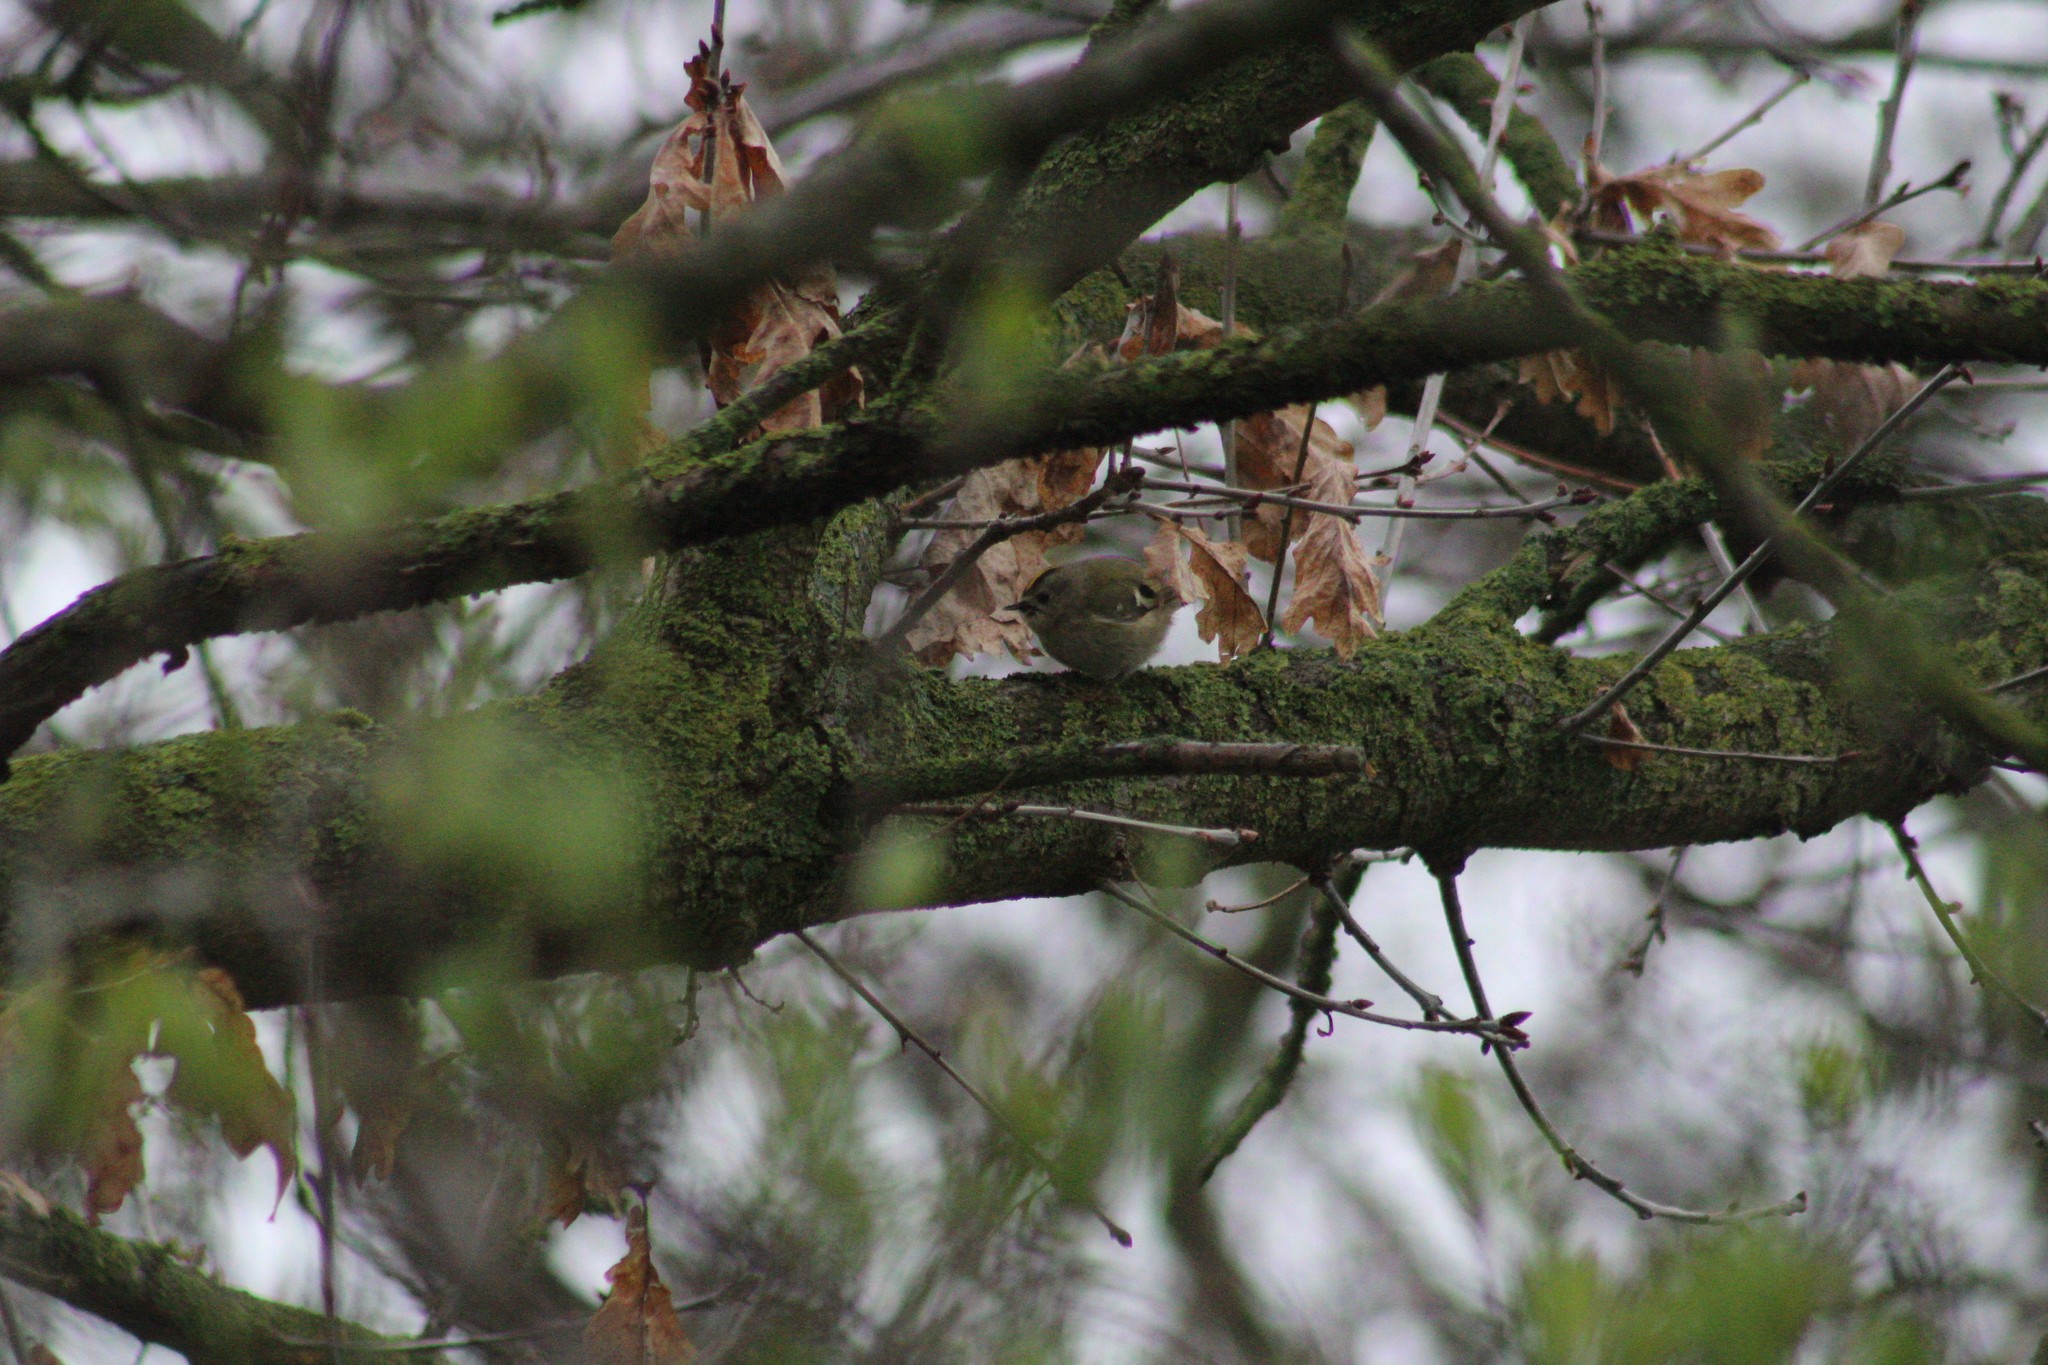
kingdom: Animalia
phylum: Chordata
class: Aves
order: Passeriformes
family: Regulidae
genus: Regulus
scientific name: Regulus regulus
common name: Goldcrest
